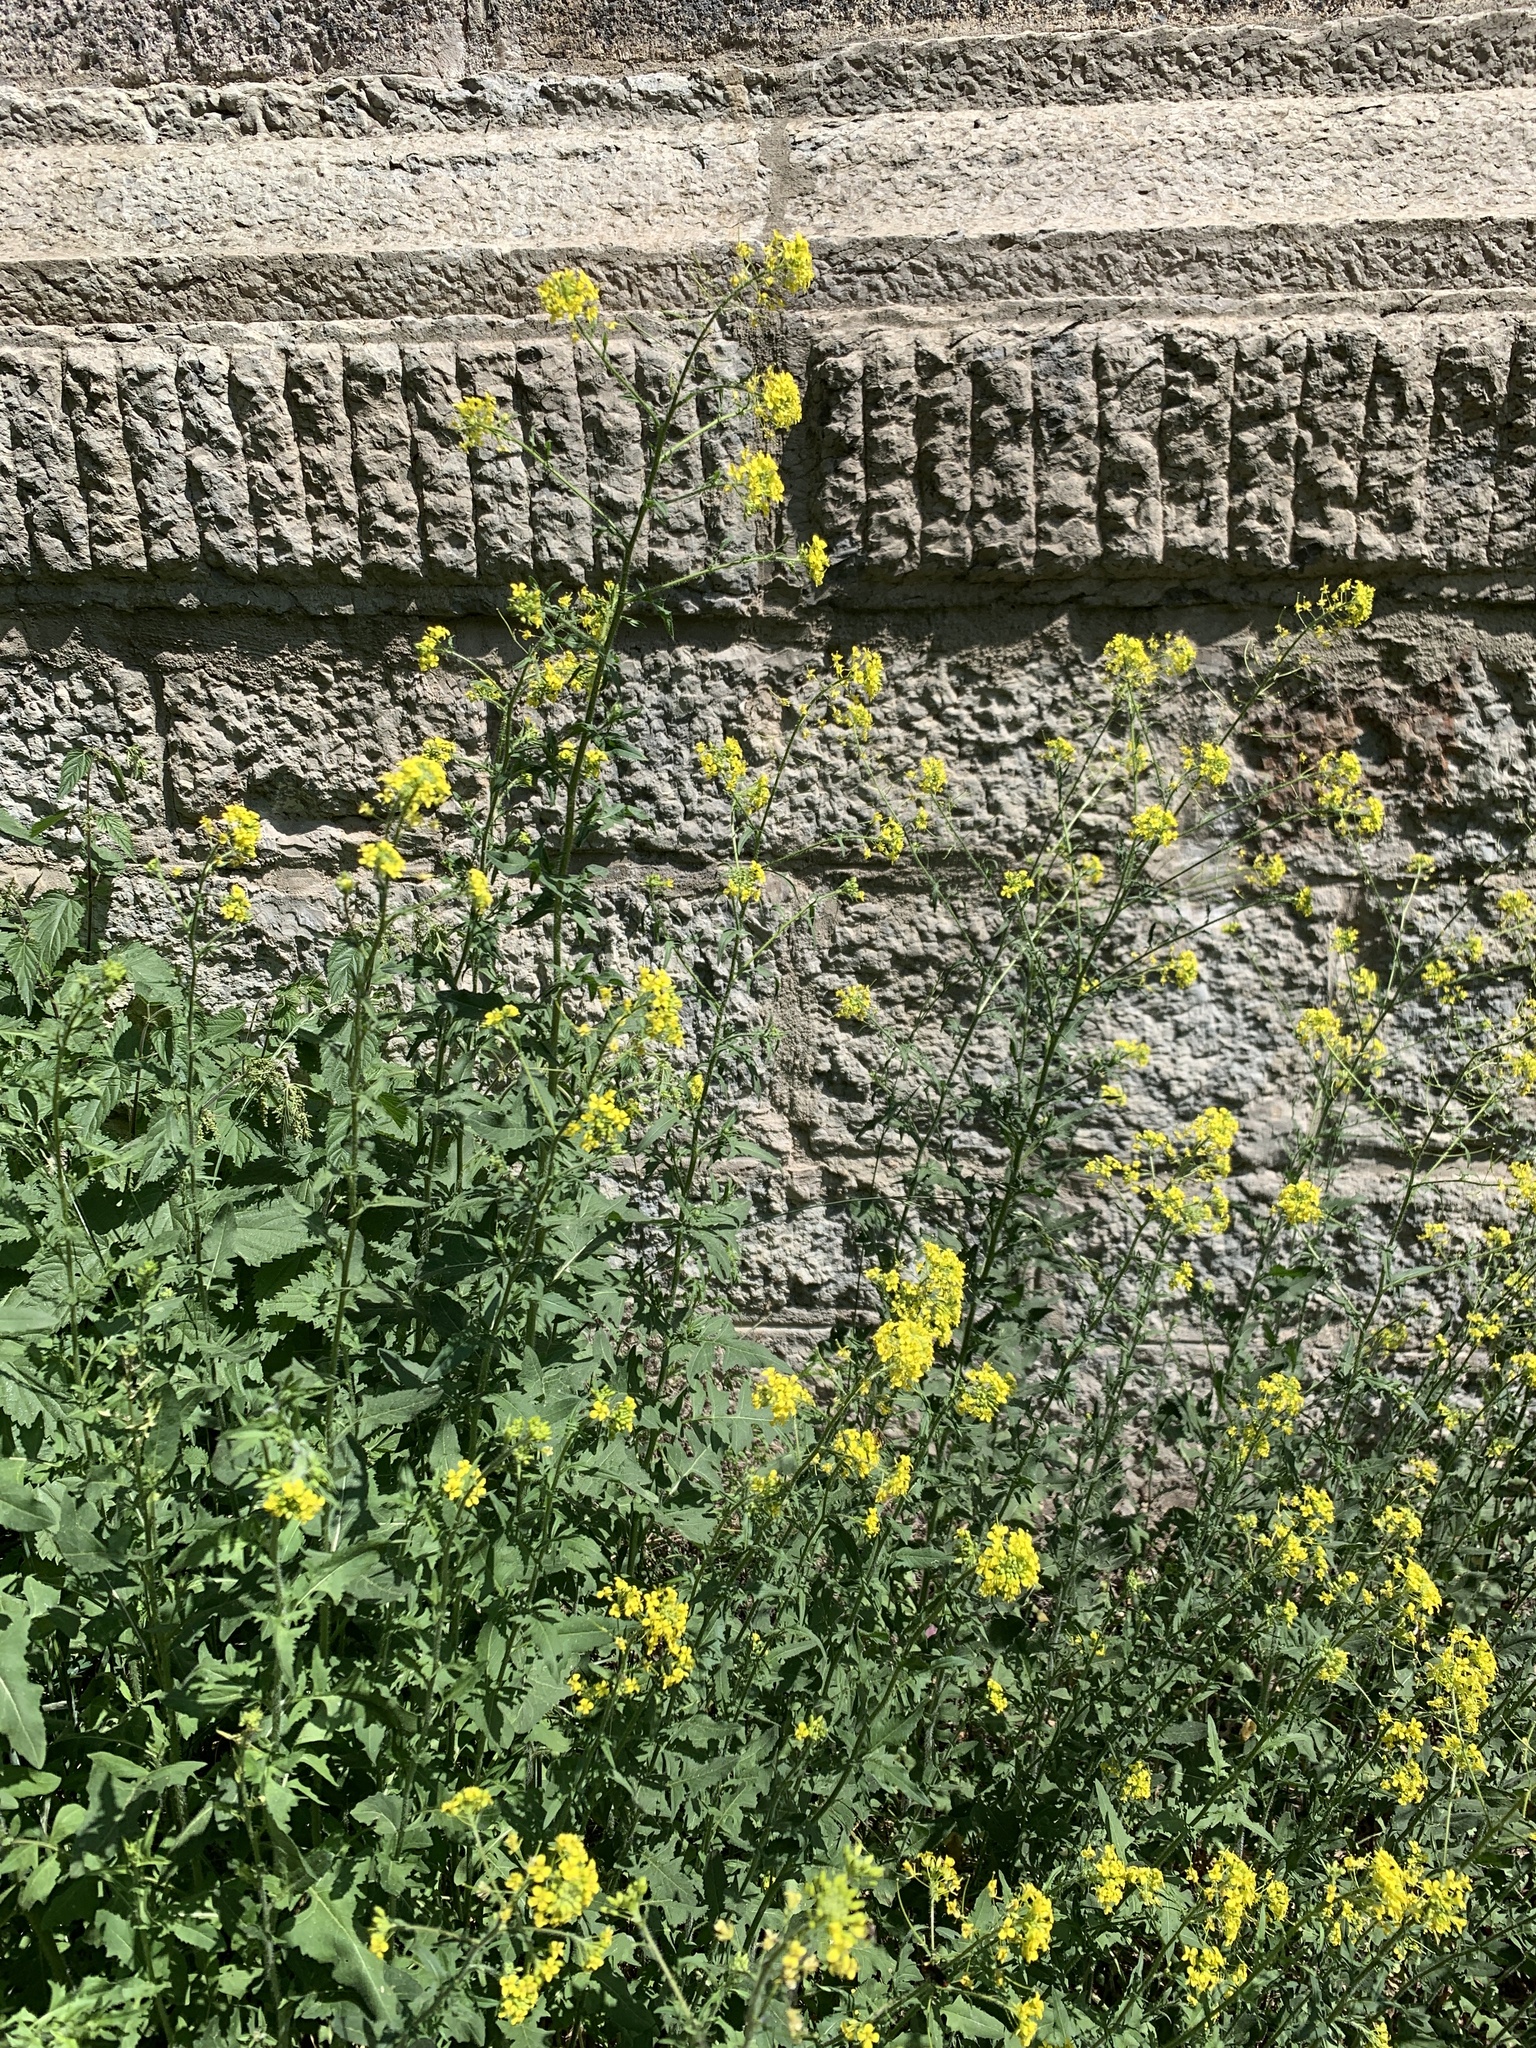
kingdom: Plantae
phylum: Tracheophyta
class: Magnoliopsida
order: Brassicales
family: Brassicaceae
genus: Sisymbrium
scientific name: Sisymbrium loeselii
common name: False london-rocket
